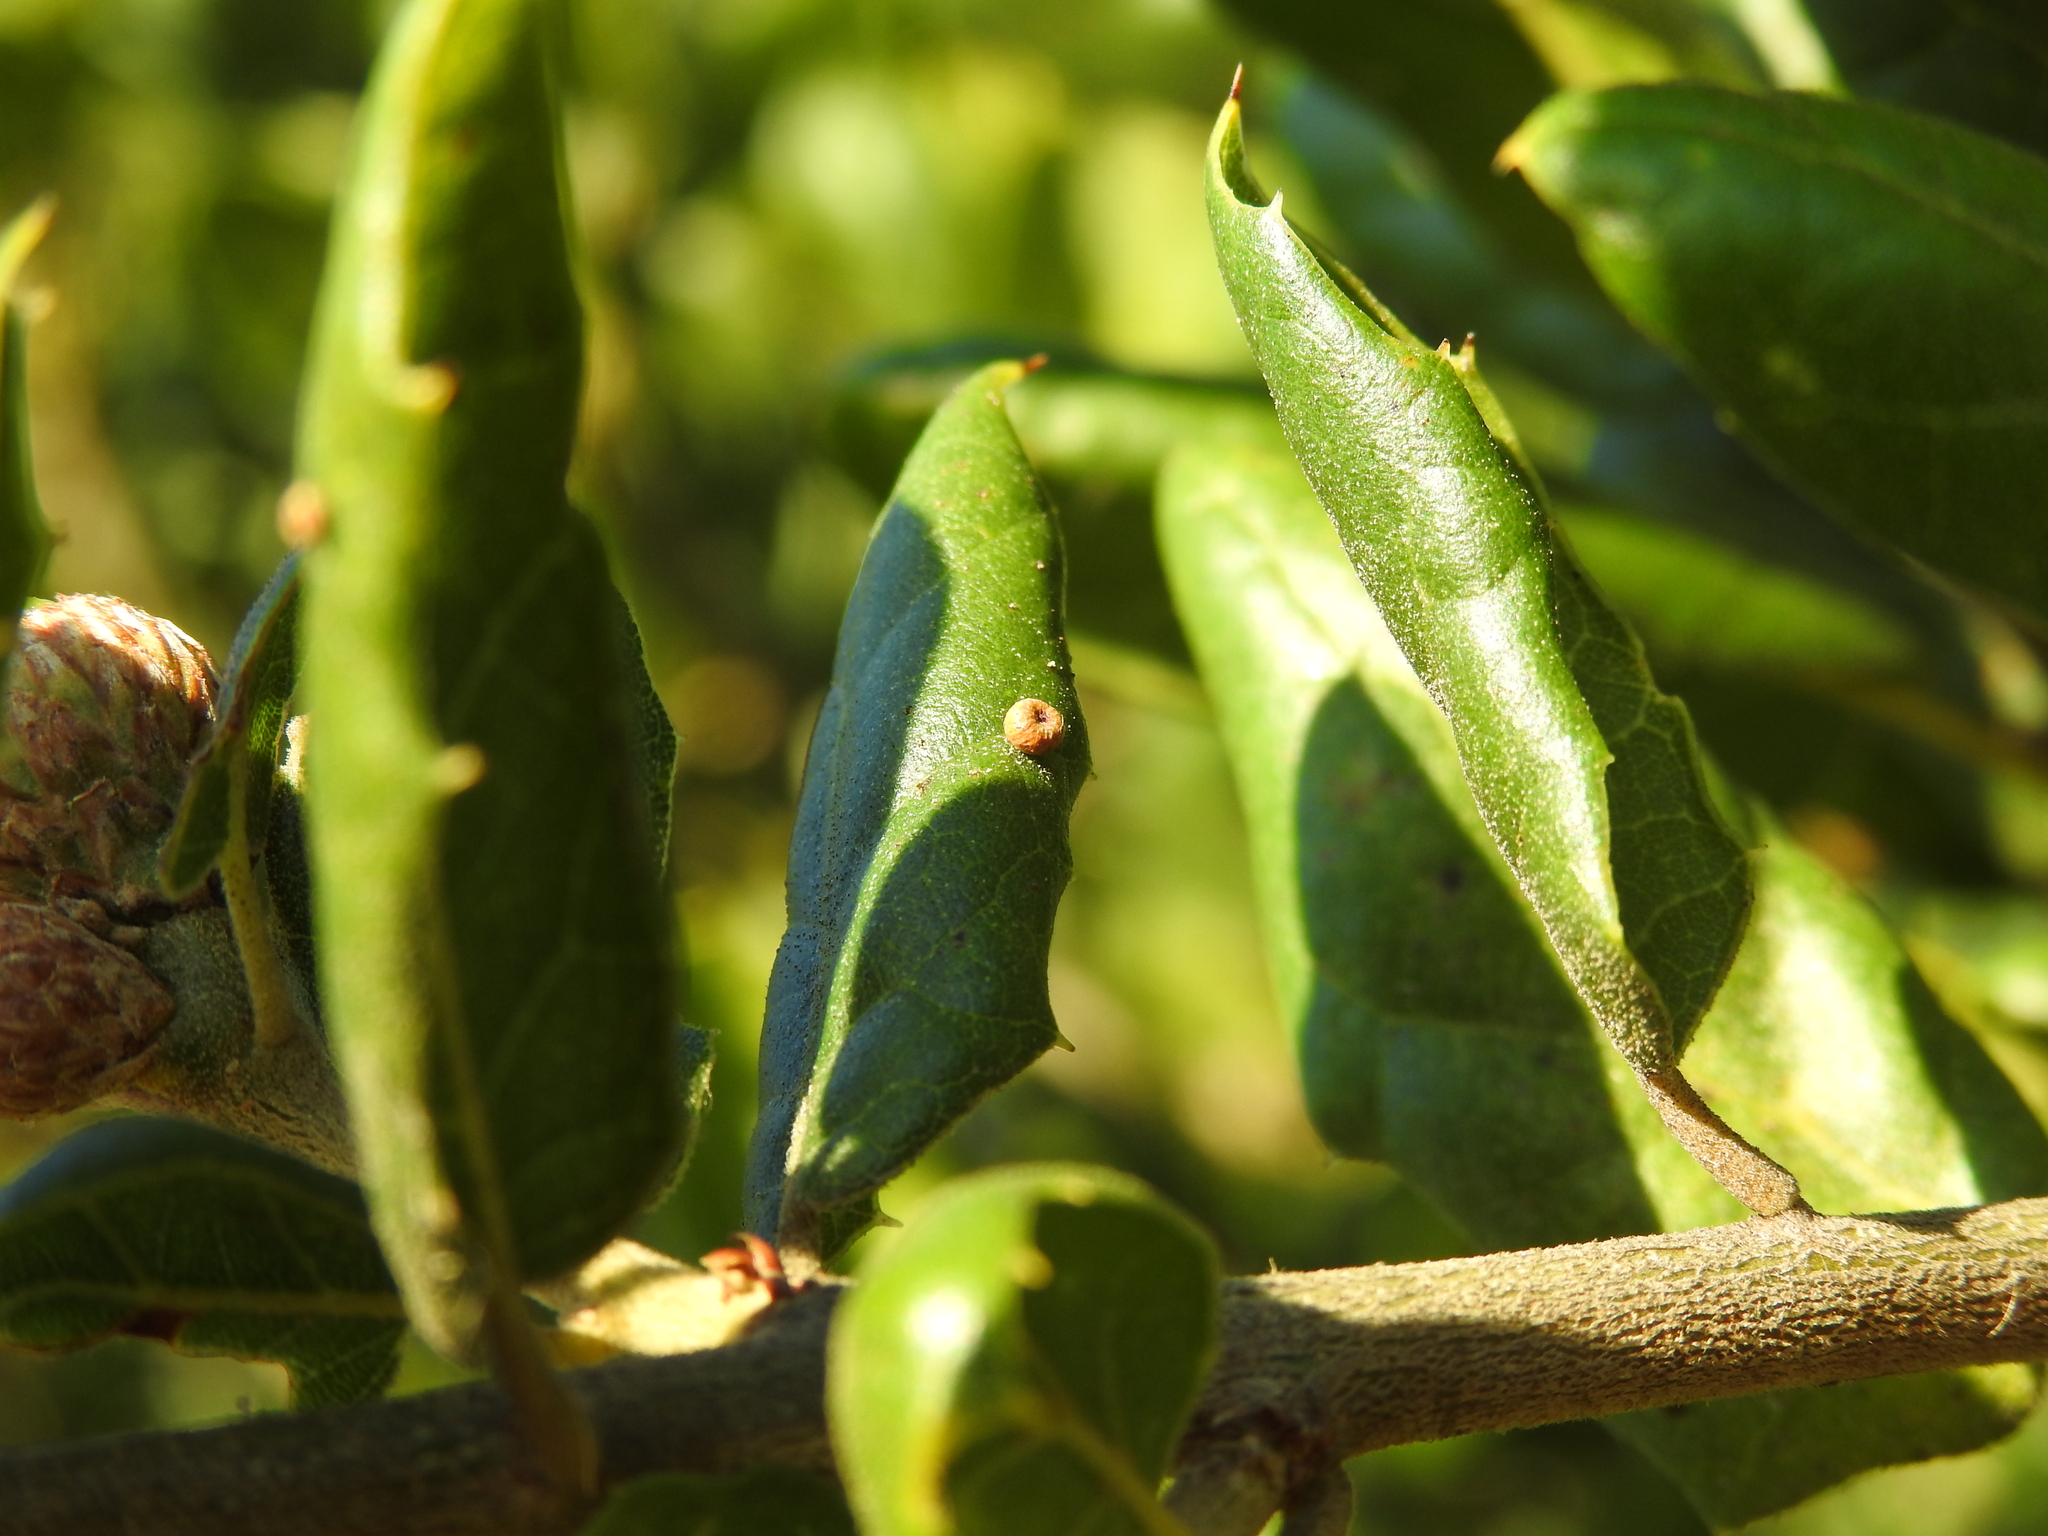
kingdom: Animalia
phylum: Arthropoda
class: Insecta
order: Hymenoptera
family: Cynipidae
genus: Dryocosmus
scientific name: Dryocosmus
